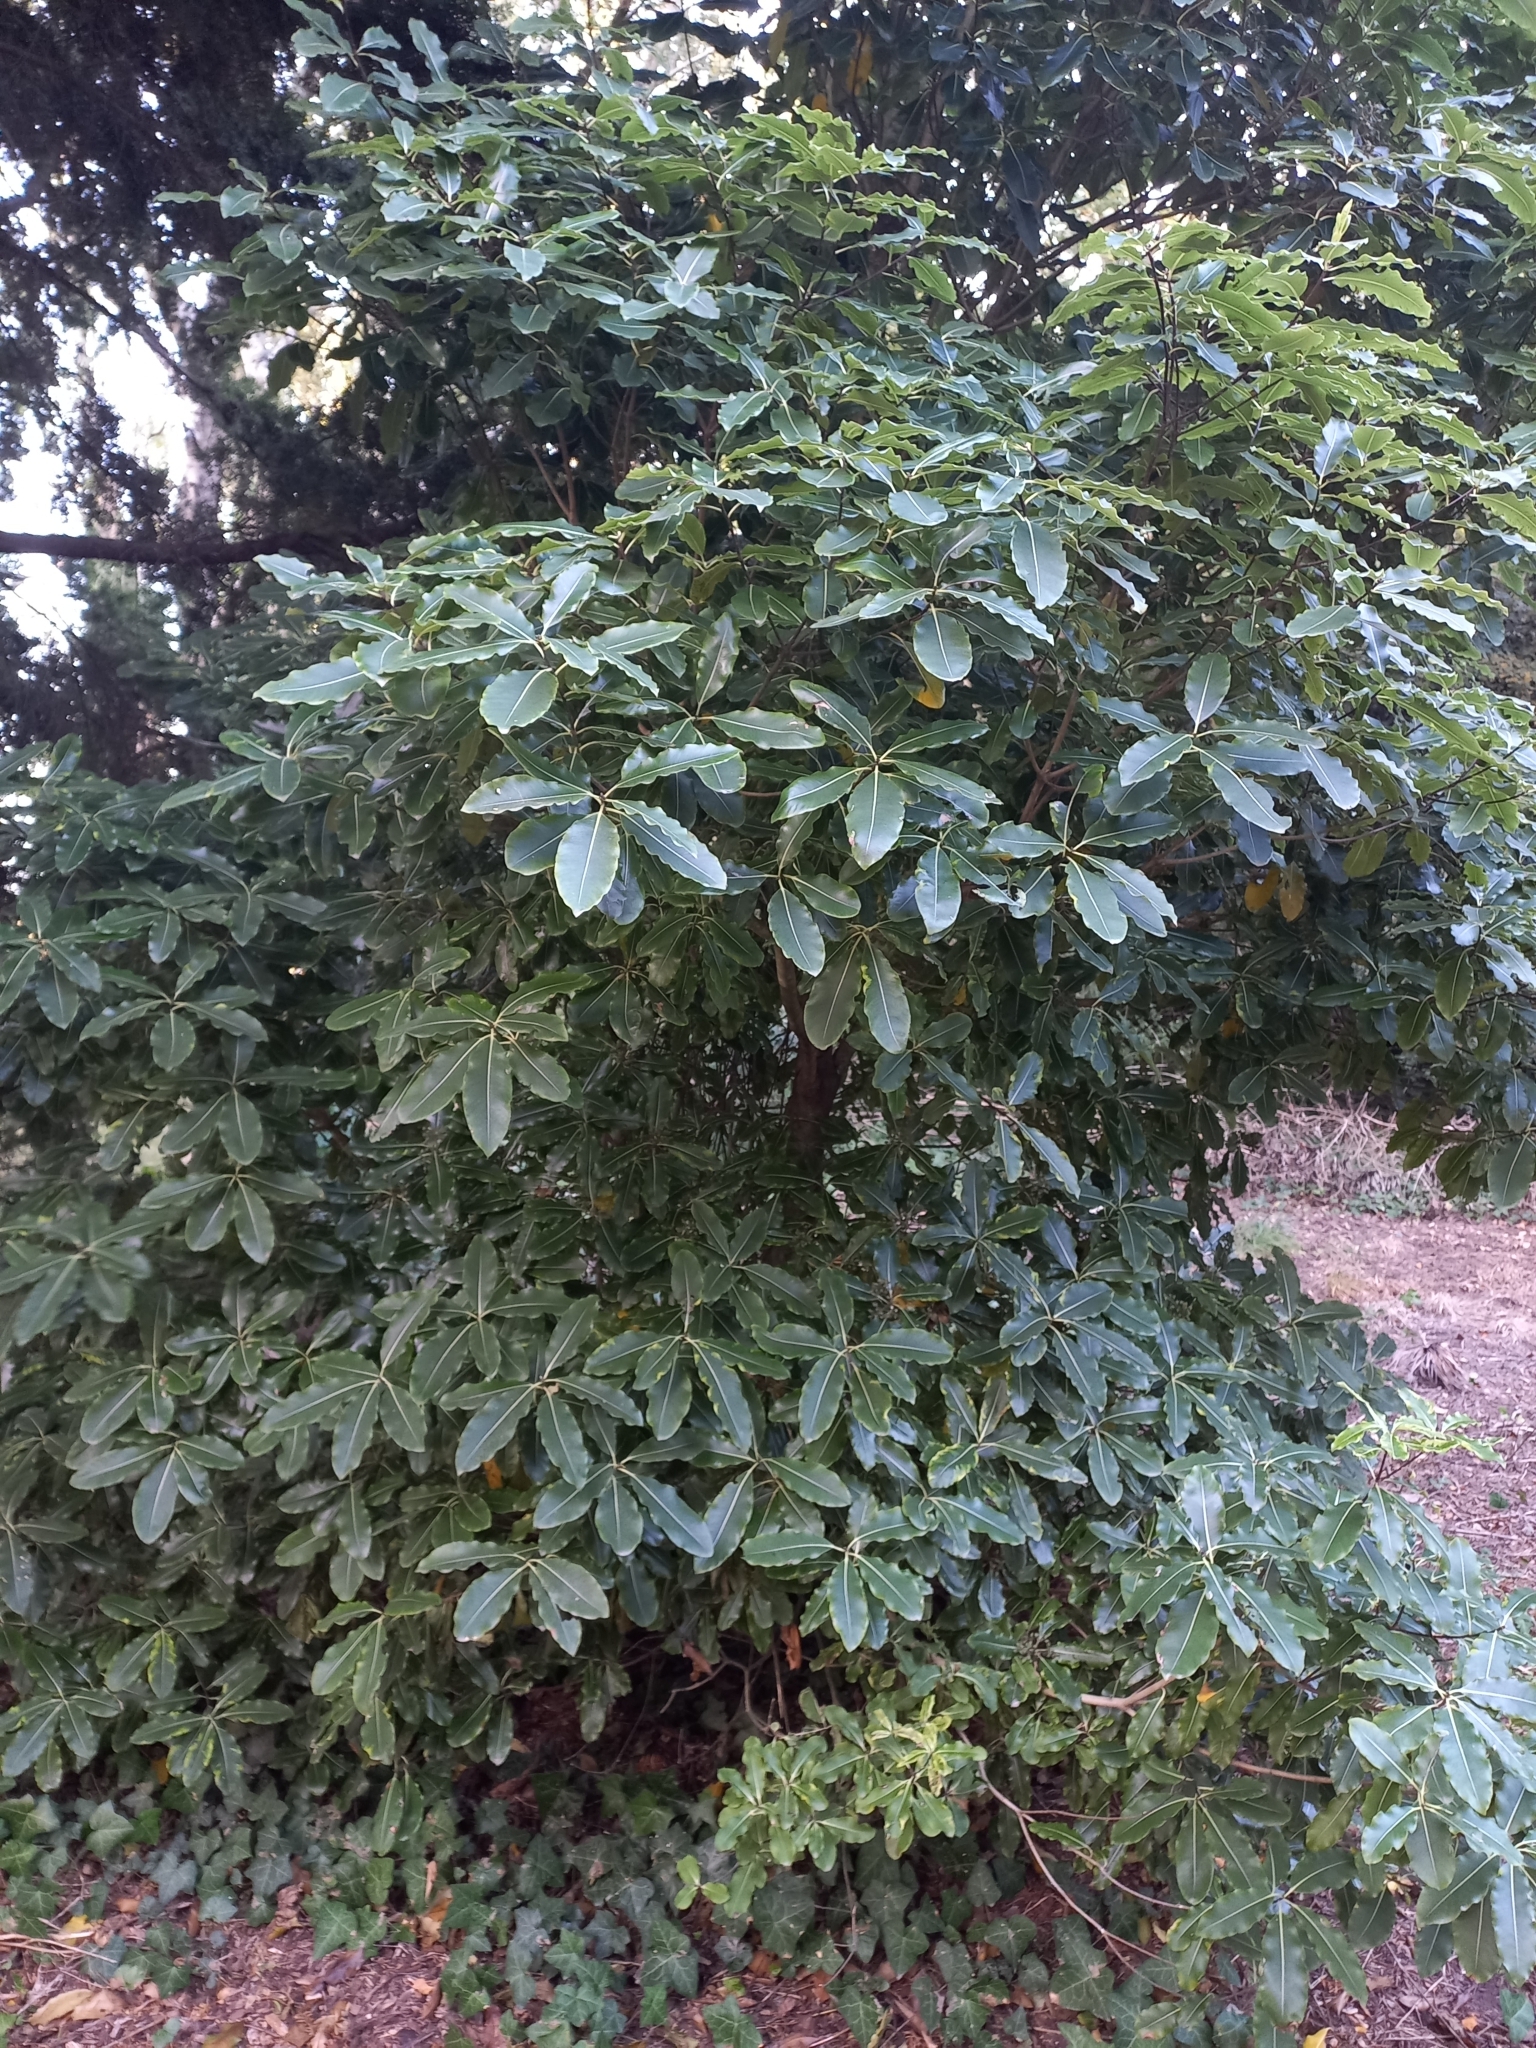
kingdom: Plantae
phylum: Tracheophyta
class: Magnoliopsida
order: Apiales
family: Pittosporaceae
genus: Pittosporum
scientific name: Pittosporum eugenioides
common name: Lemonwood
